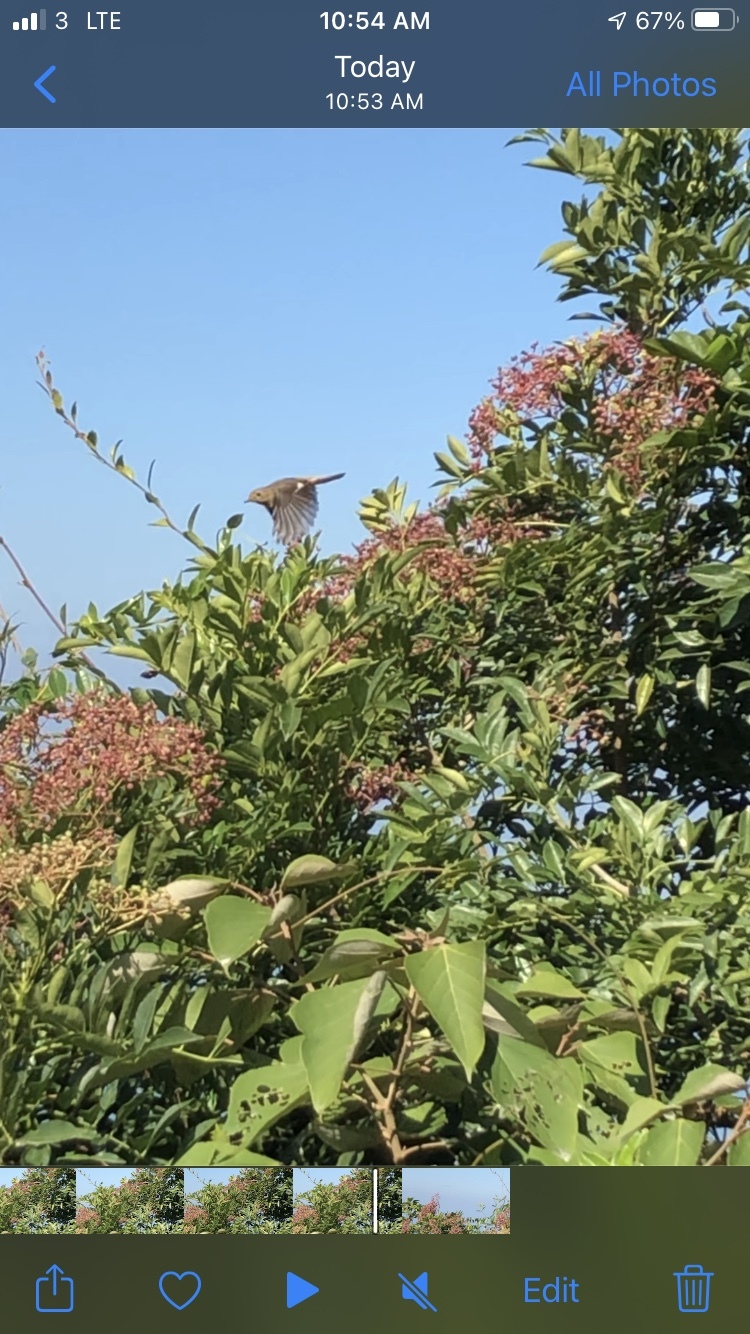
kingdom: Animalia
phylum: Chordata
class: Aves
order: Passeriformes
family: Muscicapidae
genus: Phoenicurus
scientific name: Phoenicurus auroreus
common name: Daurian redstart
